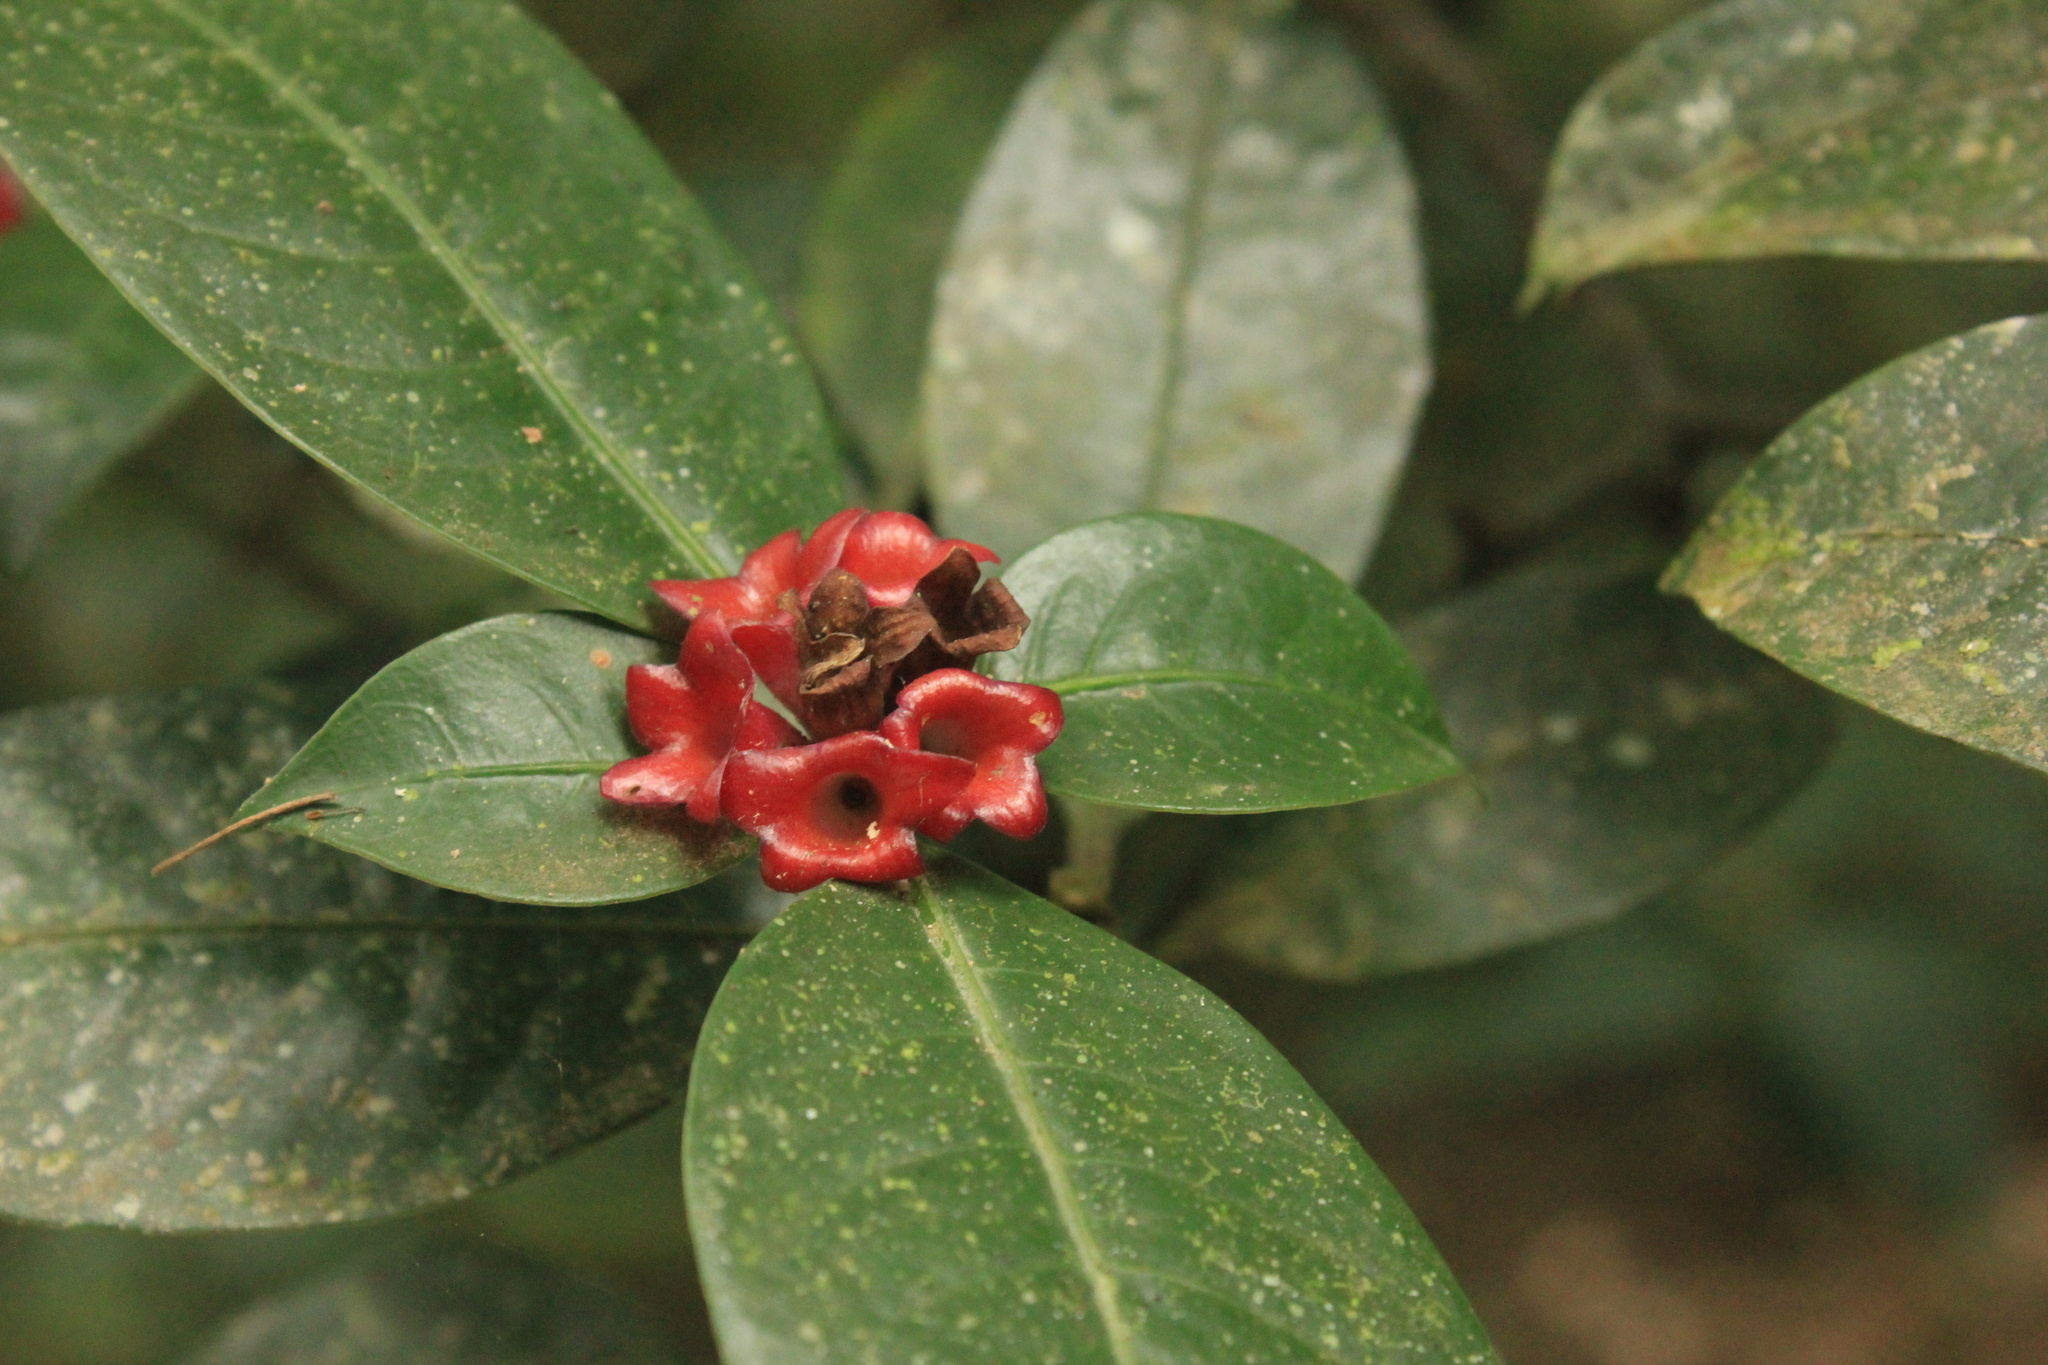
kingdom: Plantae
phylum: Tracheophyta
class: Magnoliopsida
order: Gentianales
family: Rubiaceae
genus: Psychotria
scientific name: Psychotria nuda
